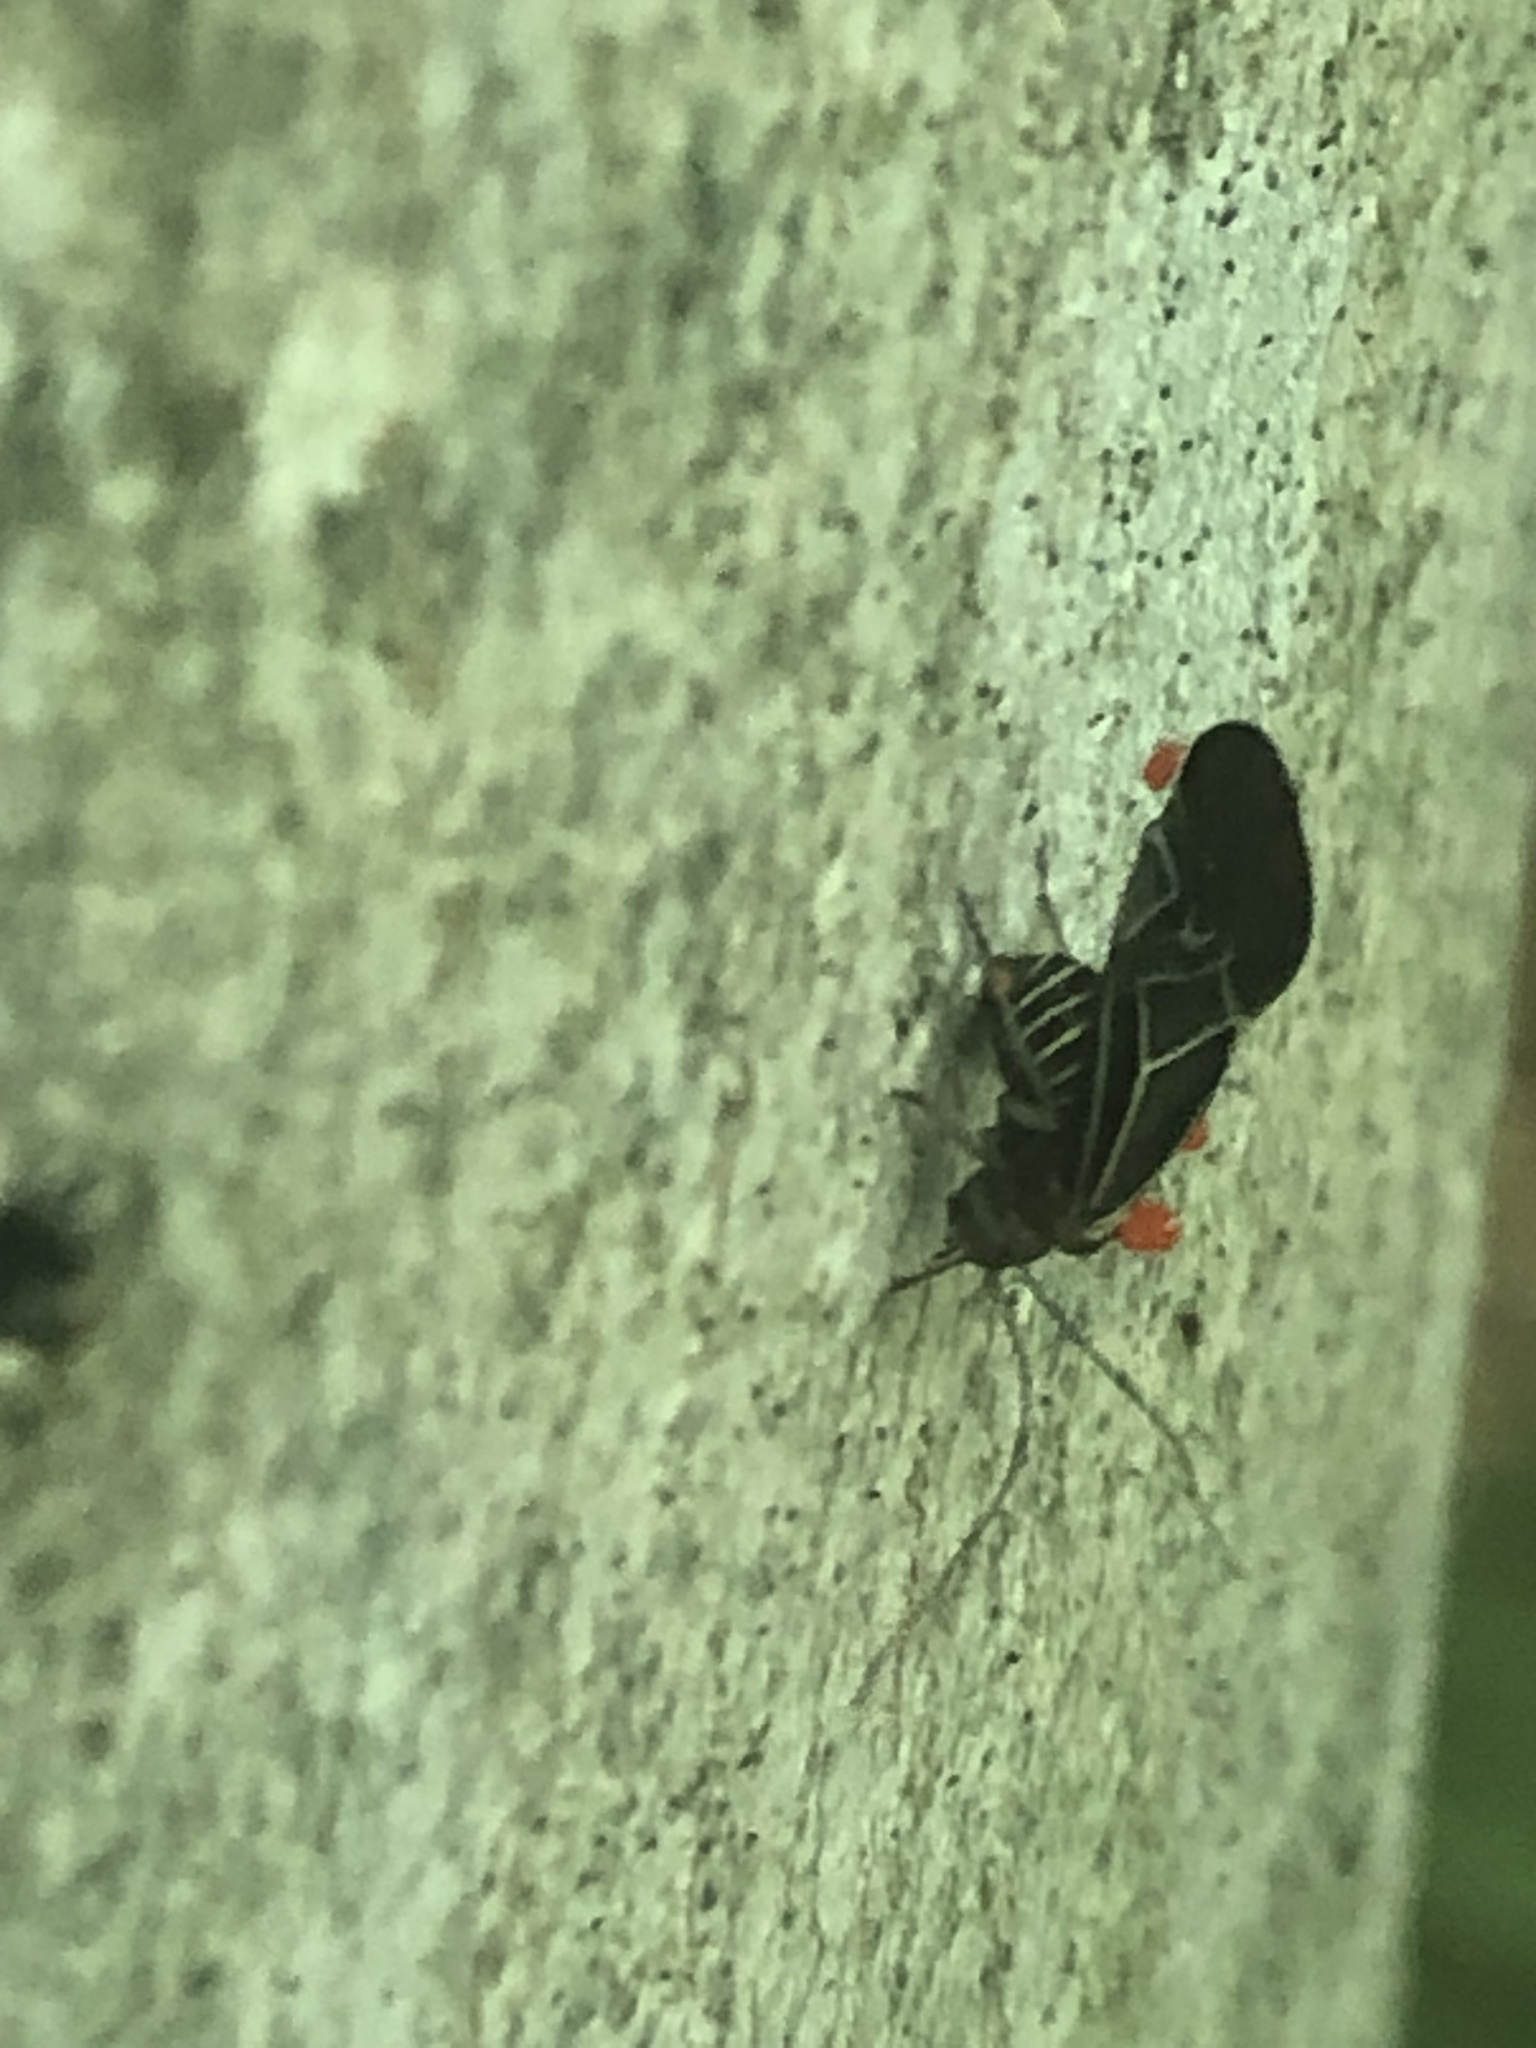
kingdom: Animalia
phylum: Arthropoda
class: Insecta
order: Psocodea
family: Psocidae
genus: Cerastipsocus
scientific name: Cerastipsocus venosus
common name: Tree cattle
